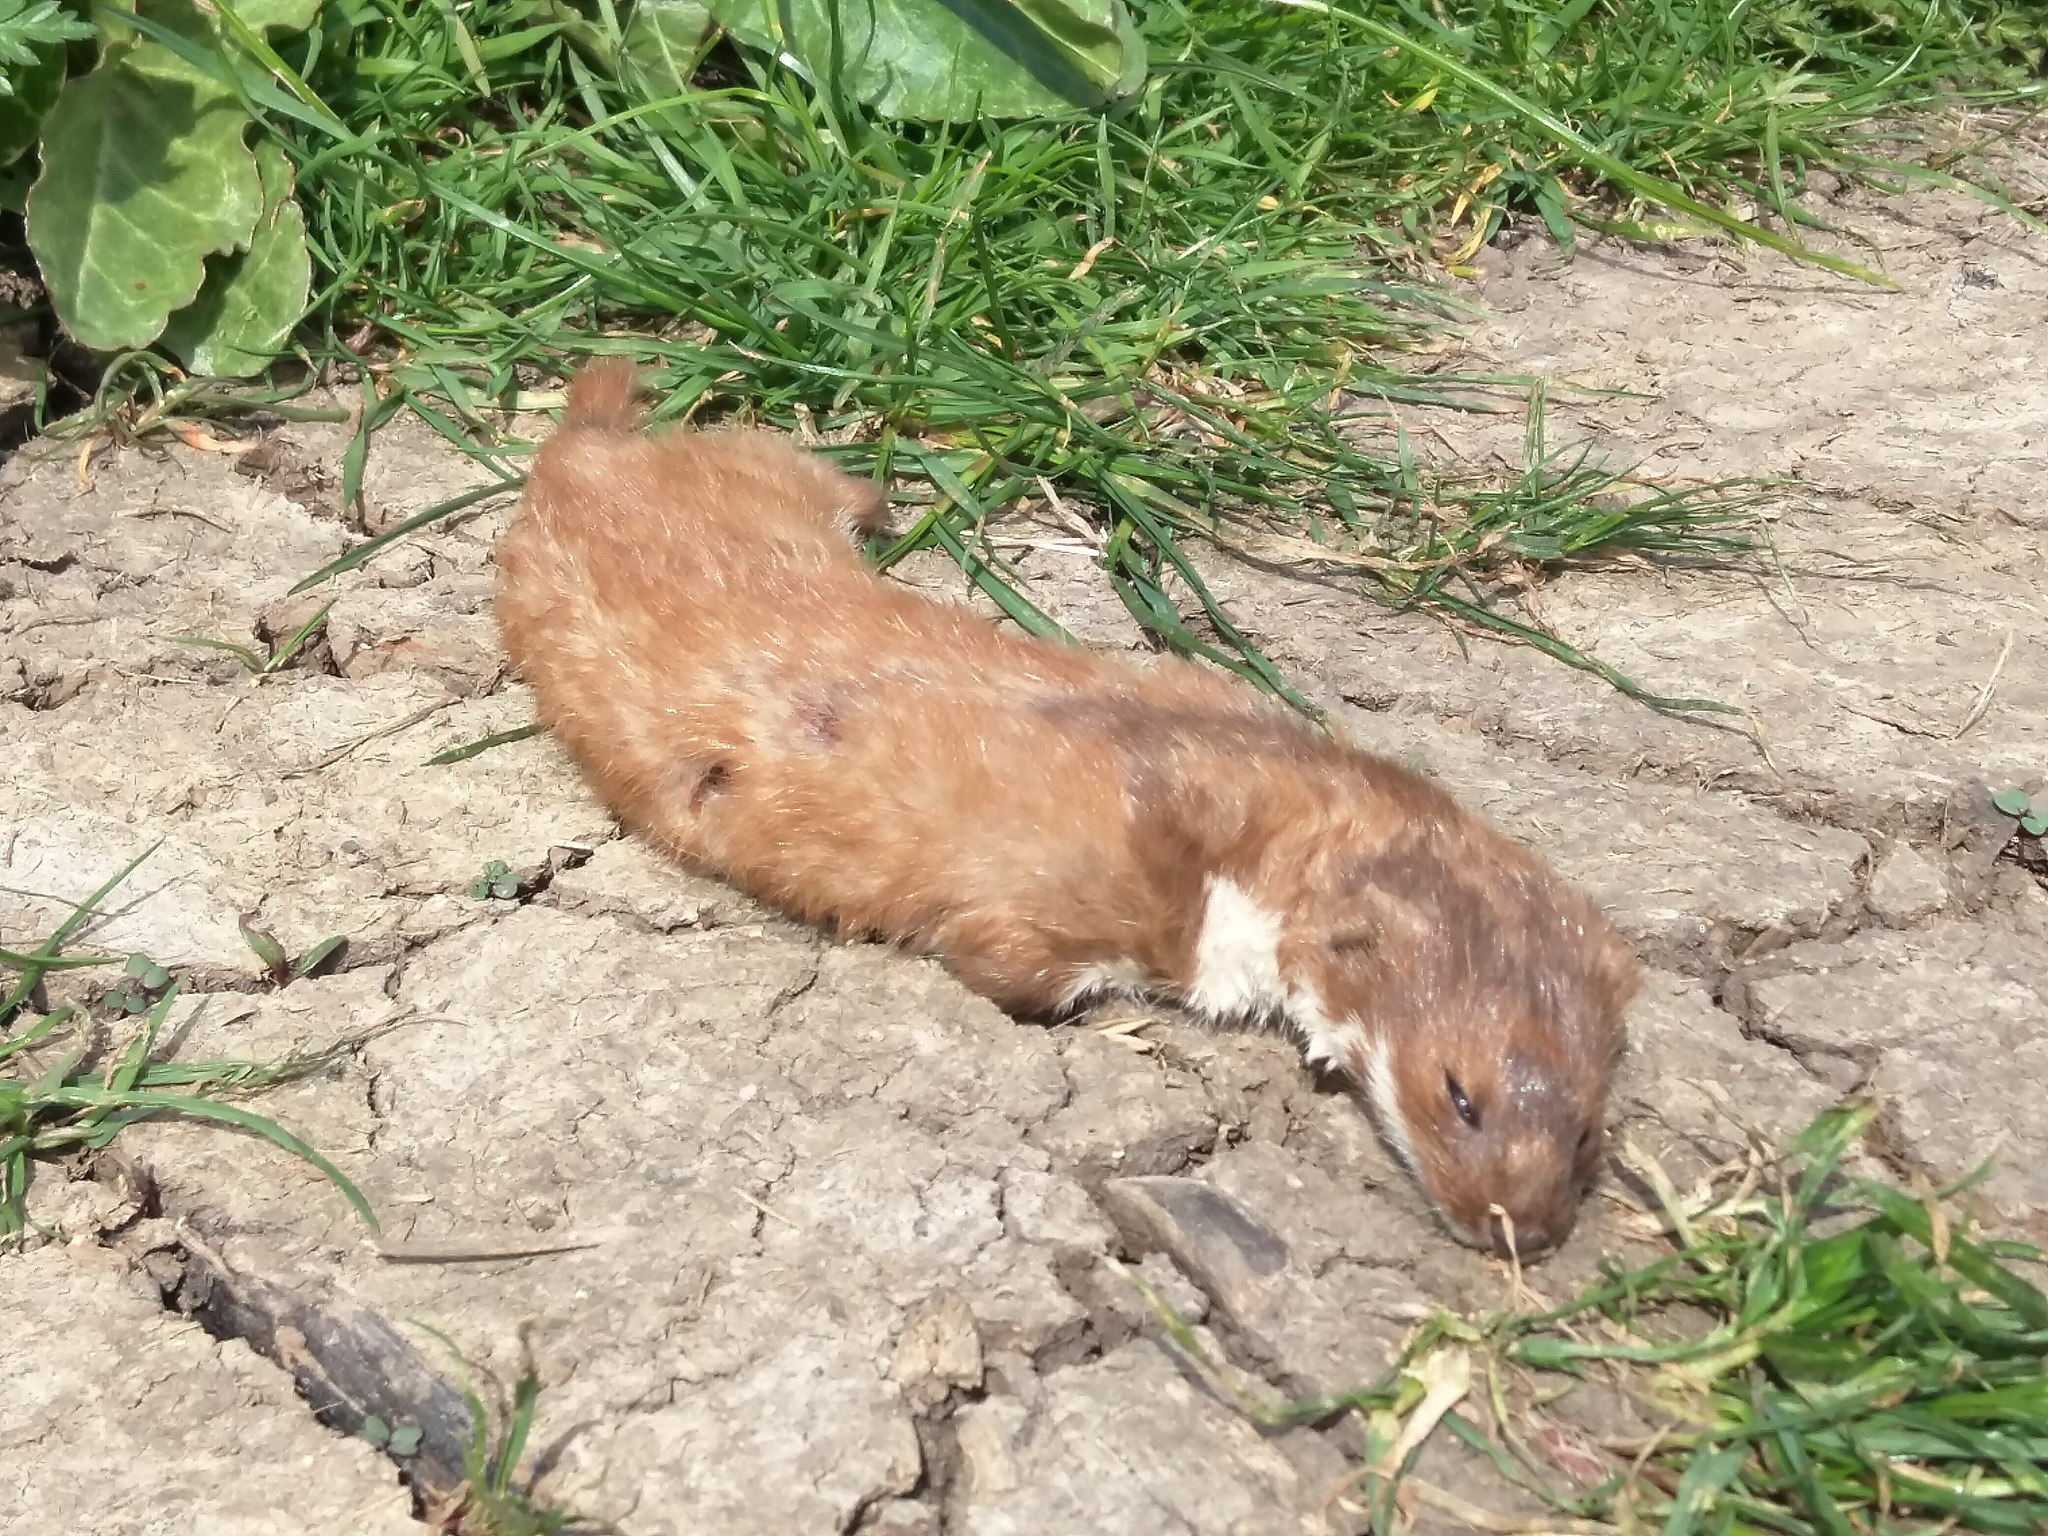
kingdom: Animalia
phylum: Chordata
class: Mammalia
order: Carnivora
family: Mustelidae
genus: Mustela
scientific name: Mustela nivalis
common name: Least weasel
